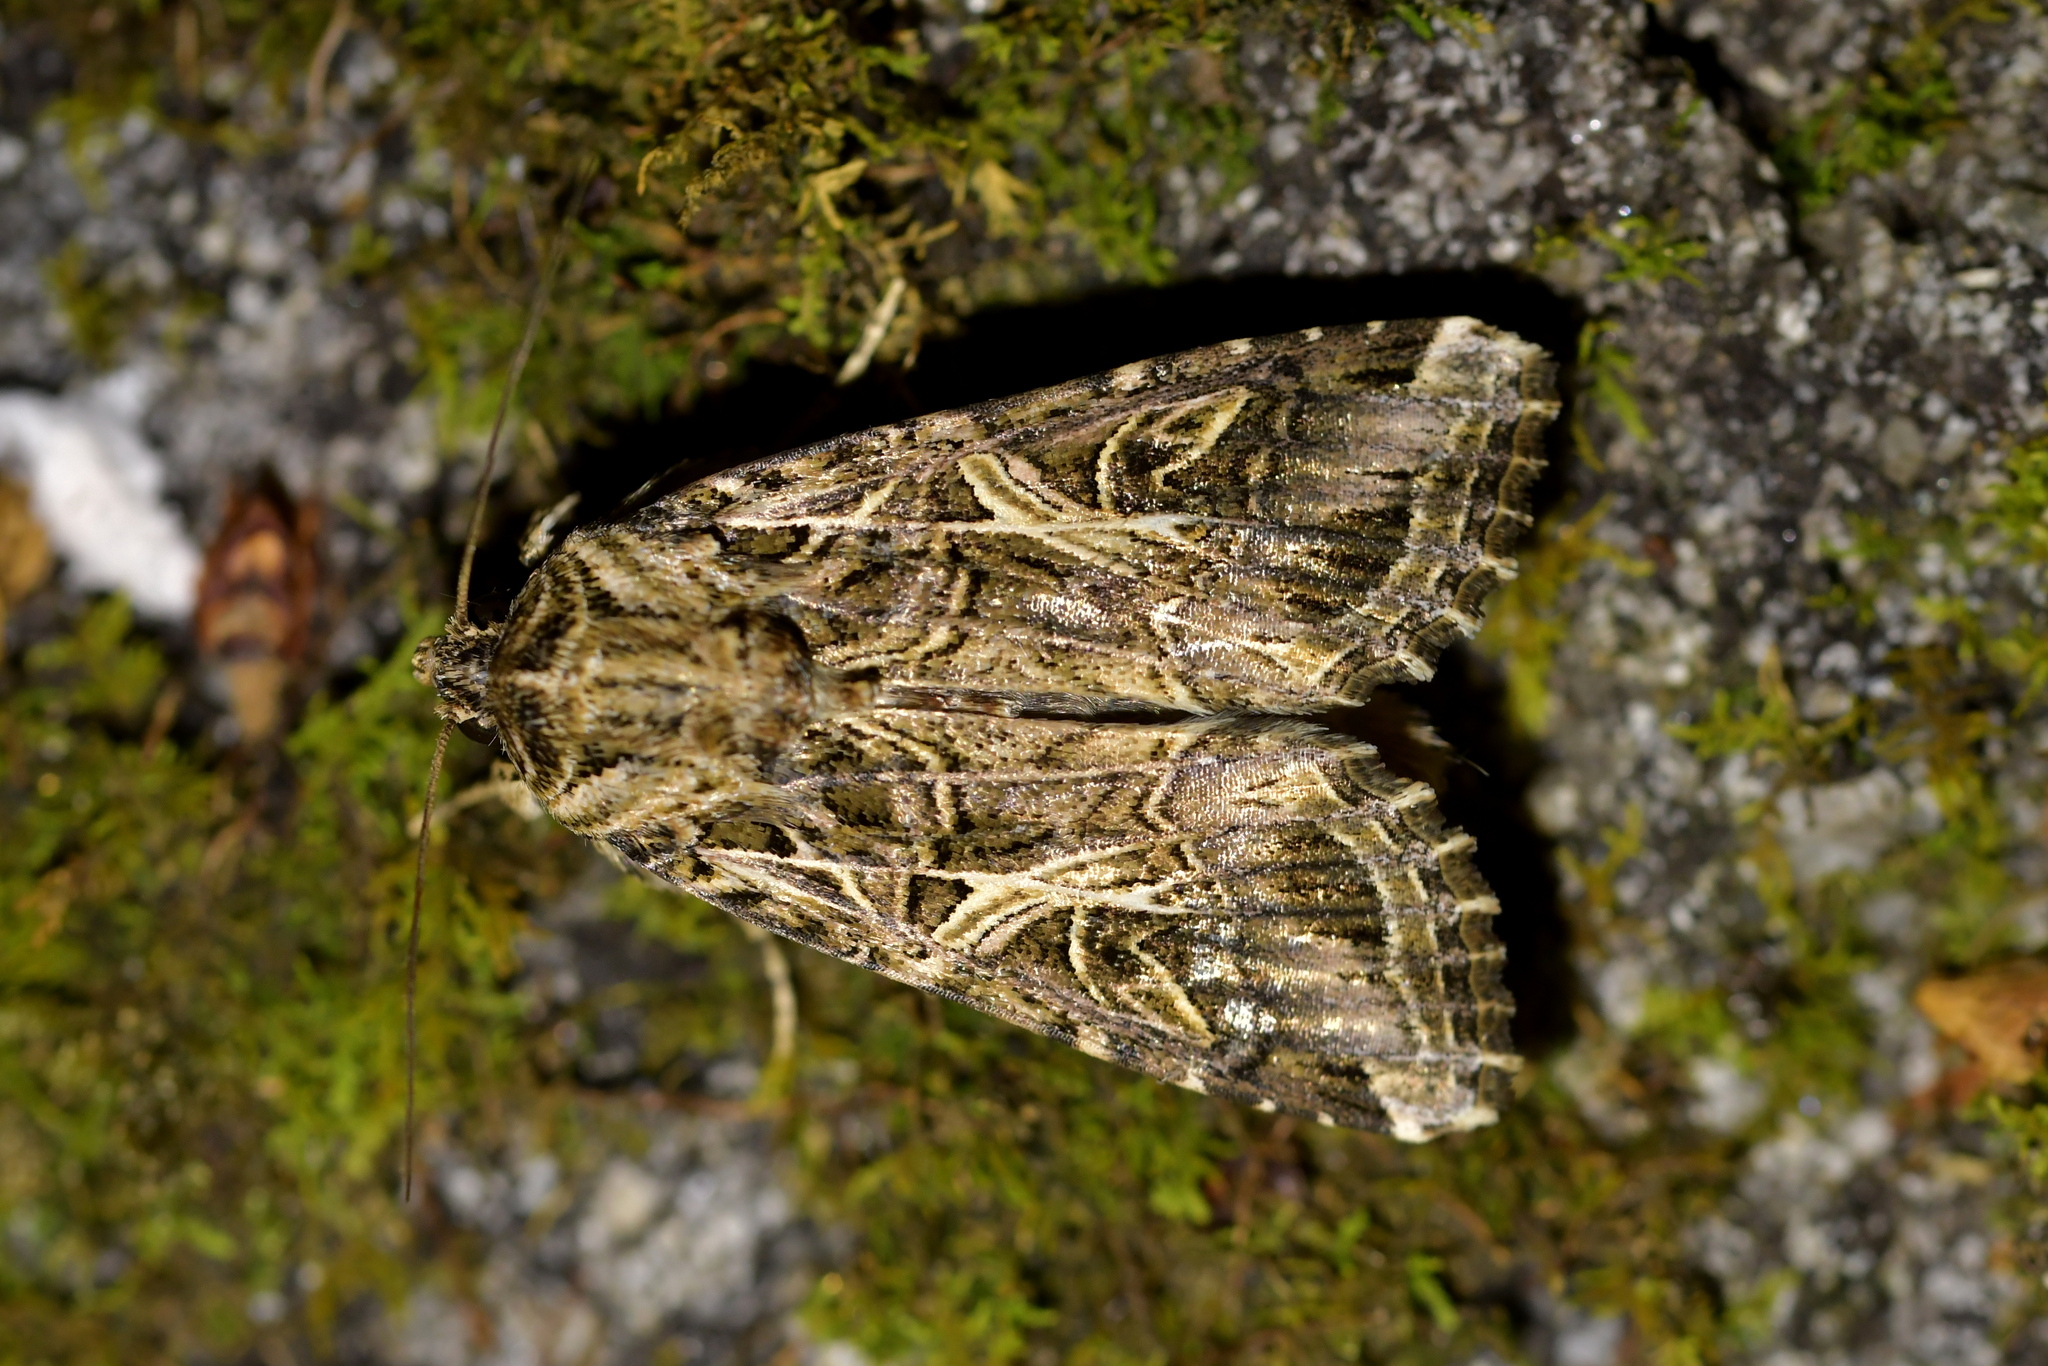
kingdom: Animalia
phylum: Arthropoda
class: Insecta
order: Lepidoptera
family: Noctuidae
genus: Spodoptera
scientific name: Spodoptera litura
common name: Asian cotton leafworm
